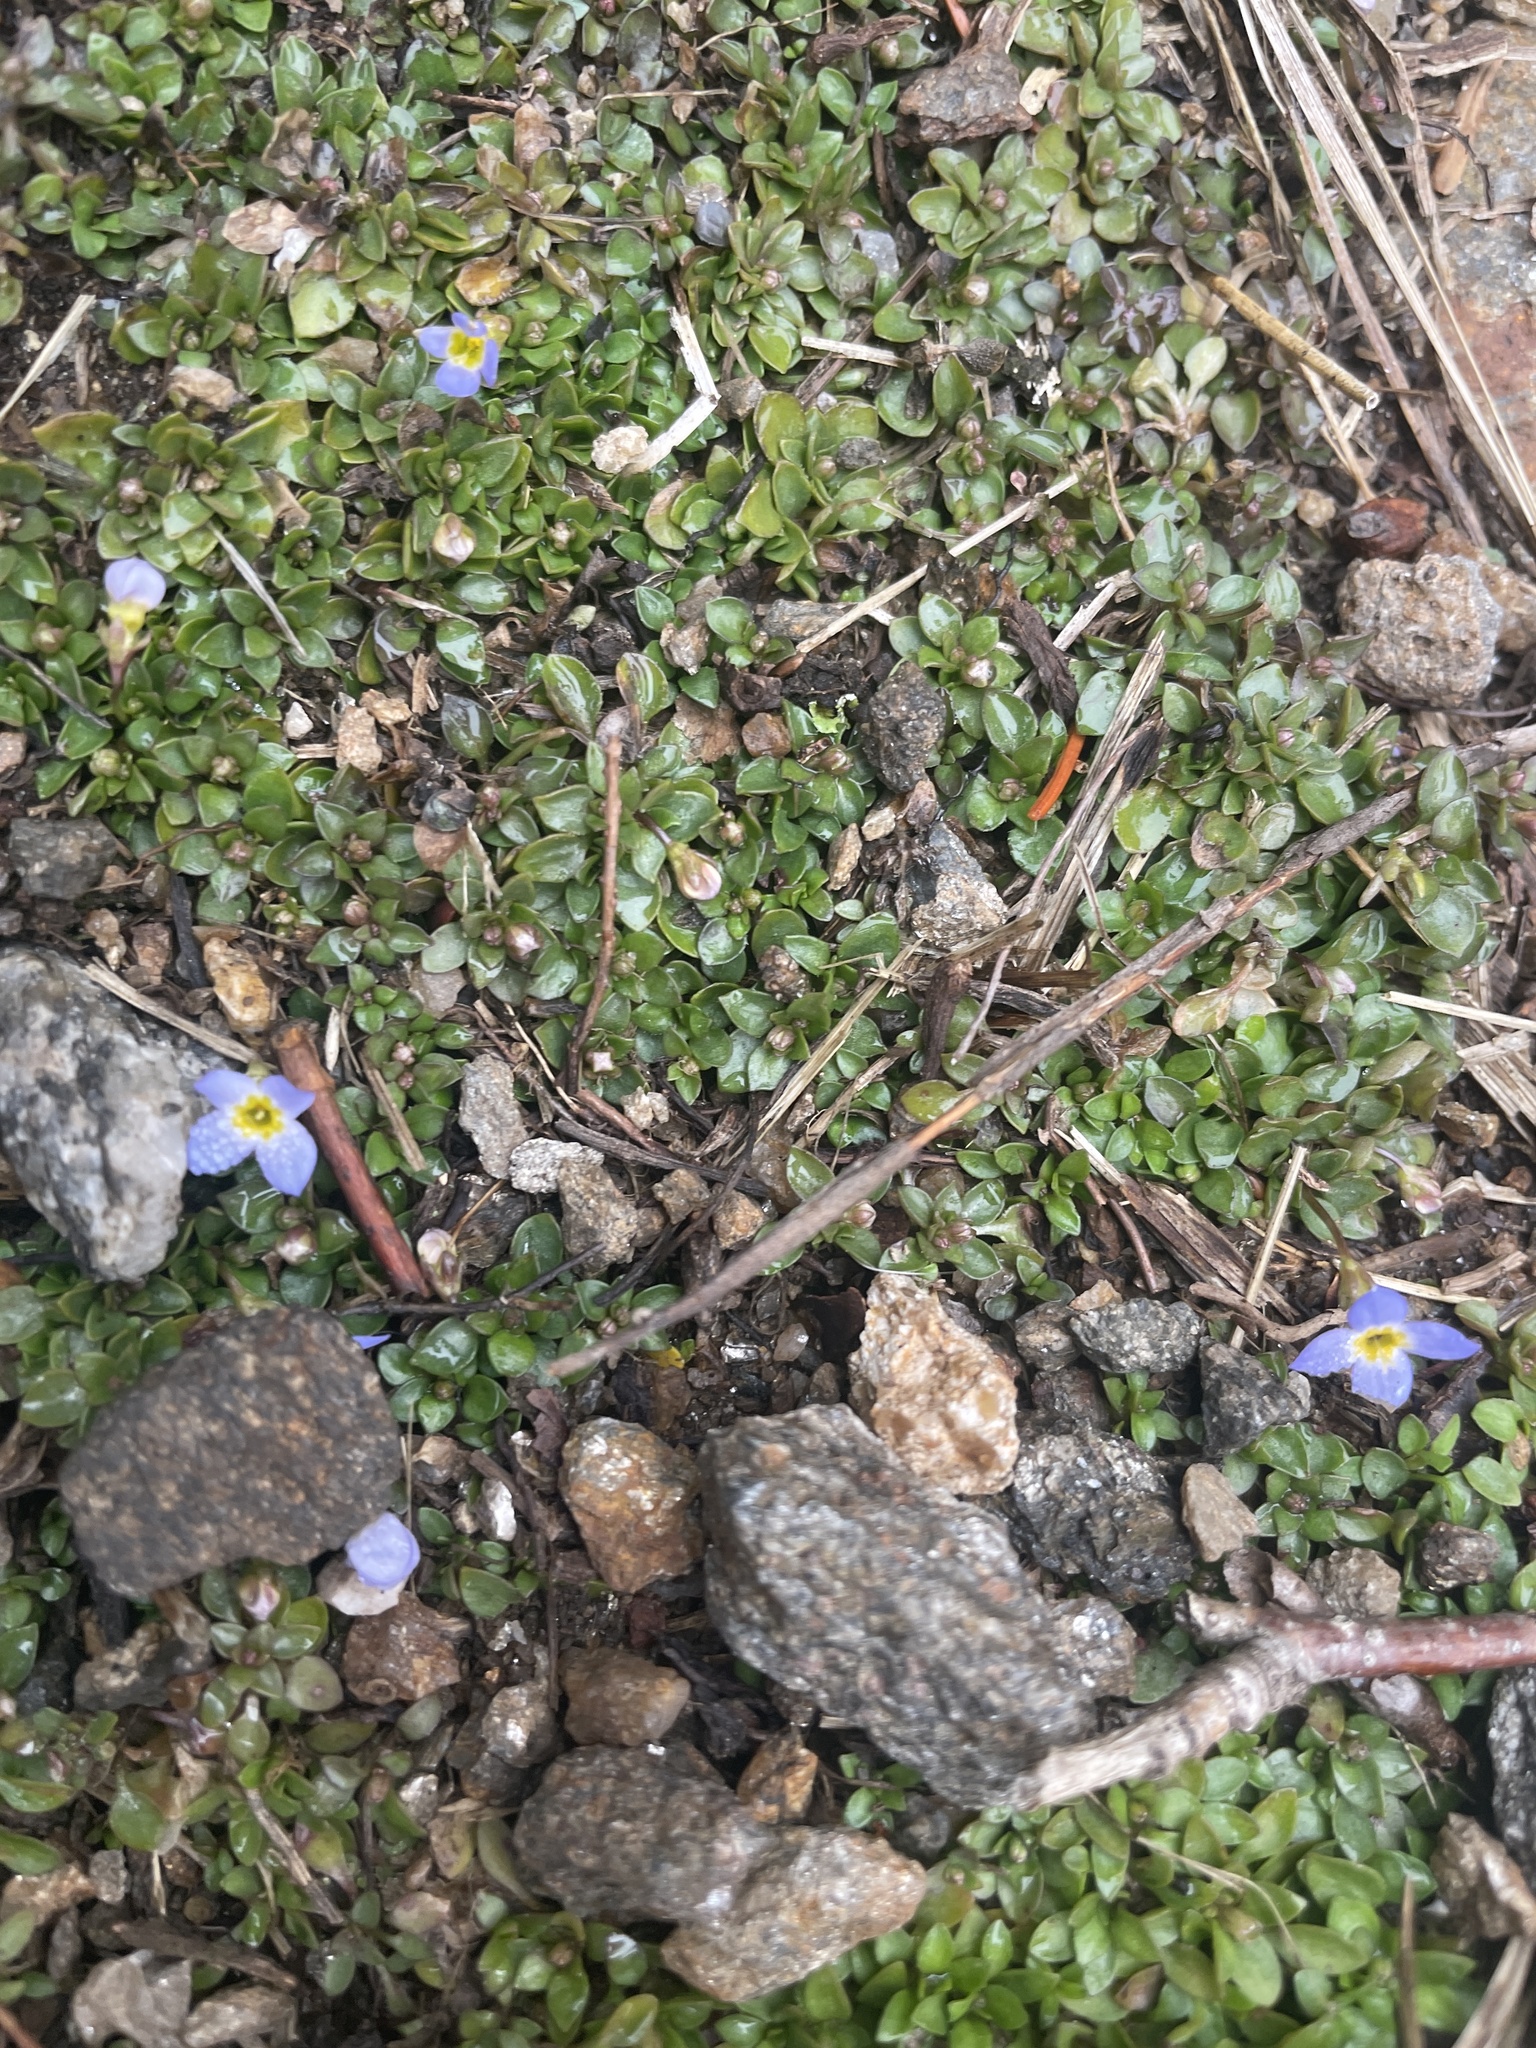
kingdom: Plantae
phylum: Tracheophyta
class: Magnoliopsida
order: Gentianales
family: Rubiaceae
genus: Houstonia
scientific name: Houstonia serpyllifolia
